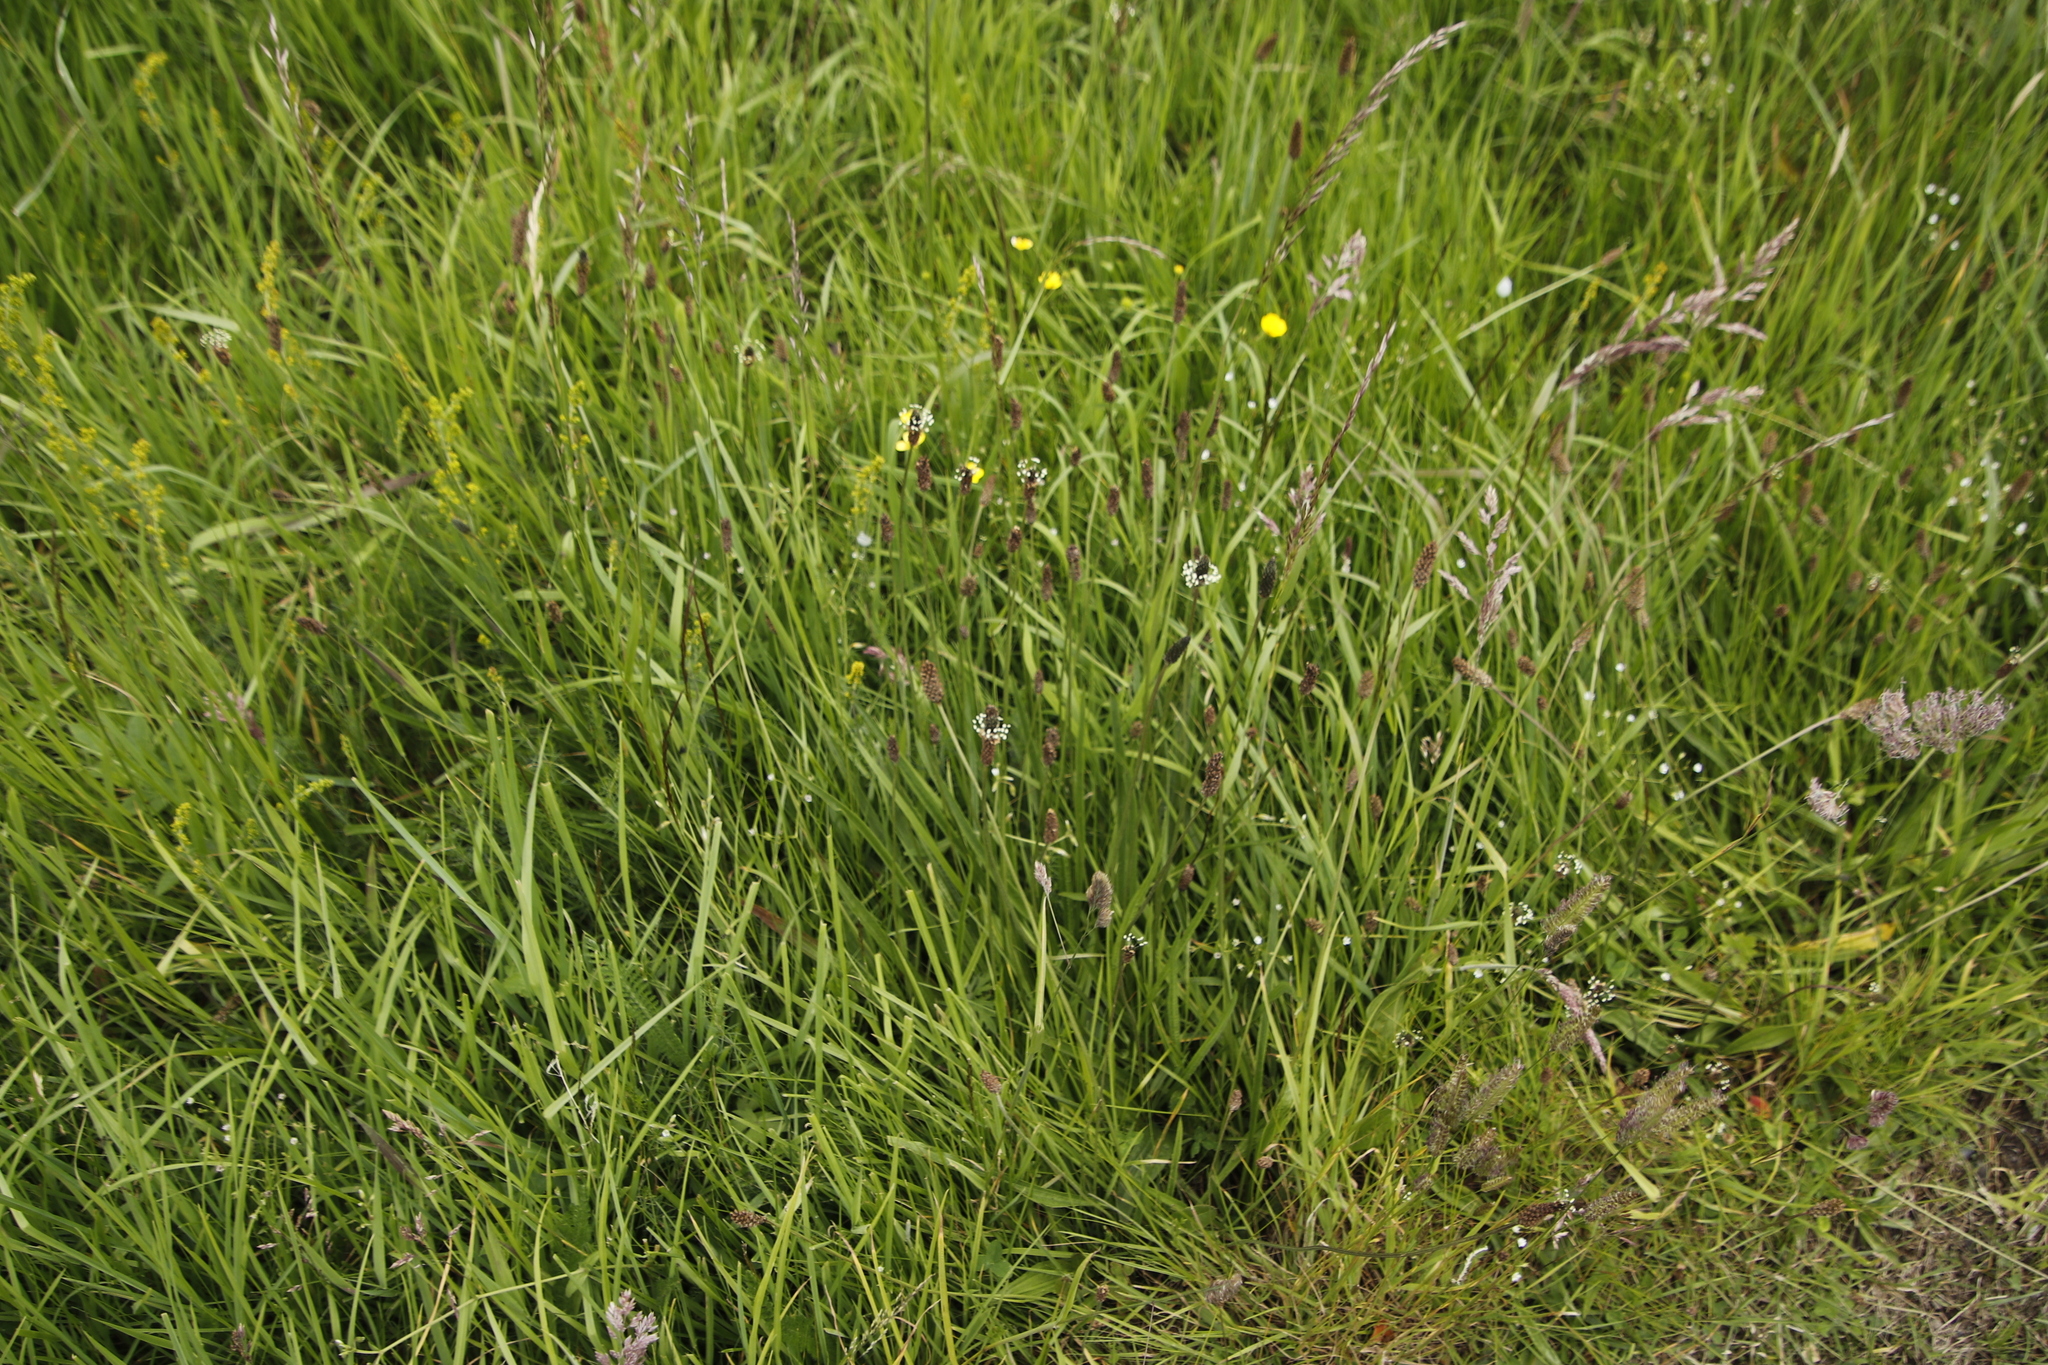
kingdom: Plantae
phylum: Tracheophyta
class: Magnoliopsida
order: Lamiales
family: Plantaginaceae
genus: Plantago
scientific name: Plantago lanceolata
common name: Ribwort plantain
